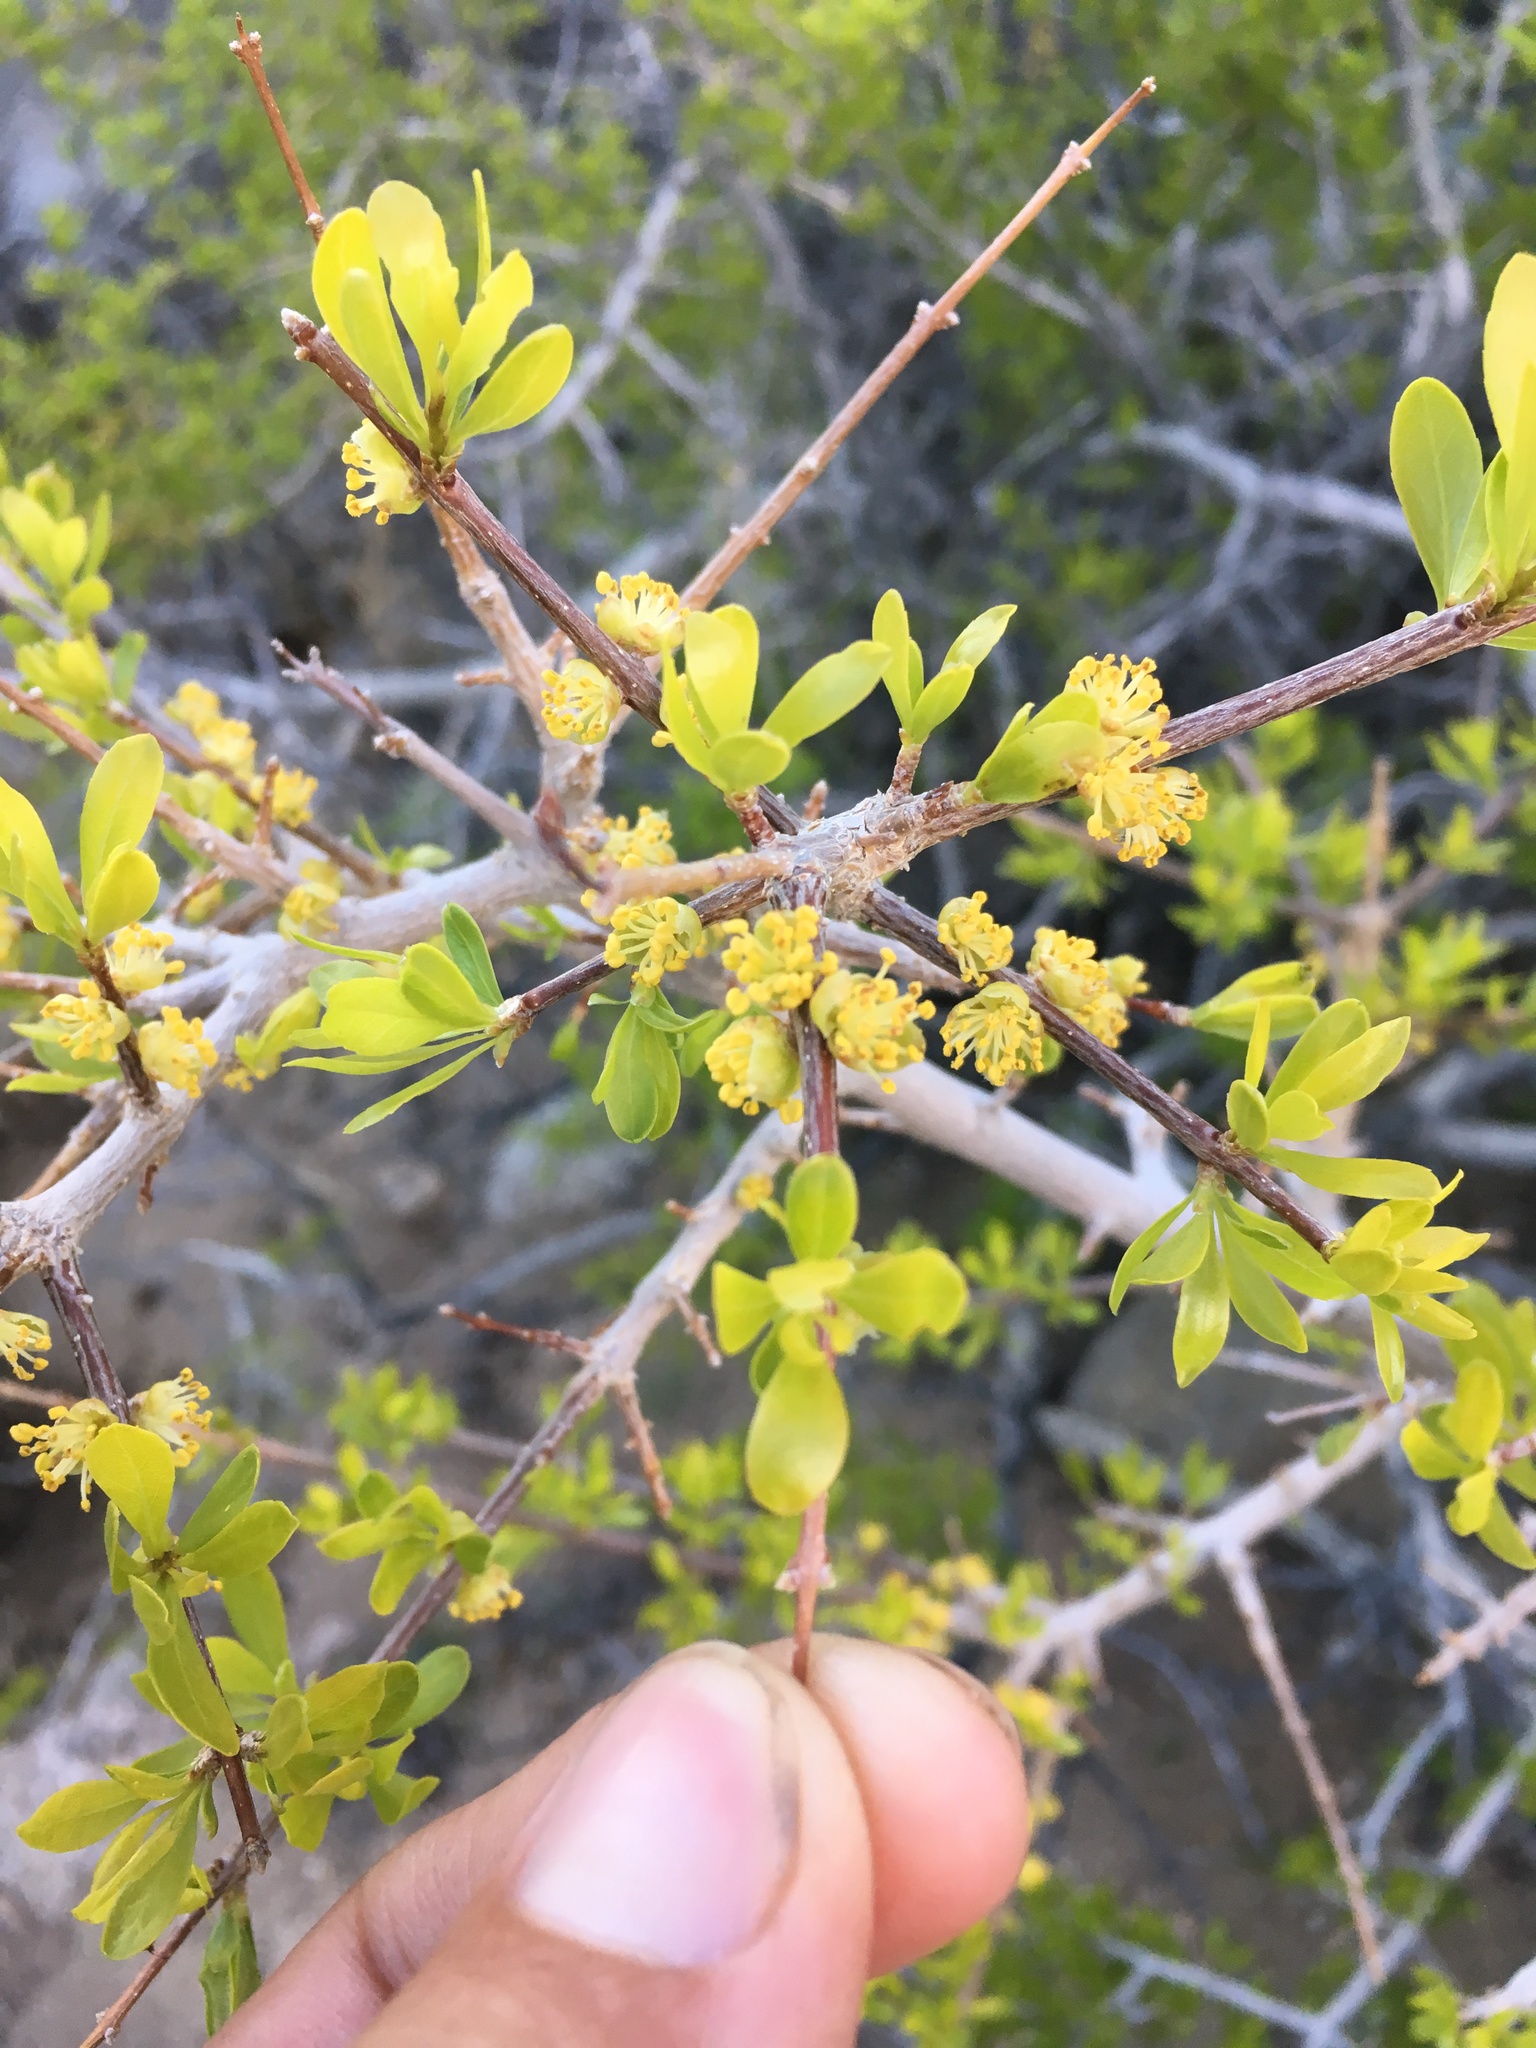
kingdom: Plantae
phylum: Tracheophyta
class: Magnoliopsida
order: Lamiales
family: Oleaceae
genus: Forestiera
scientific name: Forestiera pubescens
